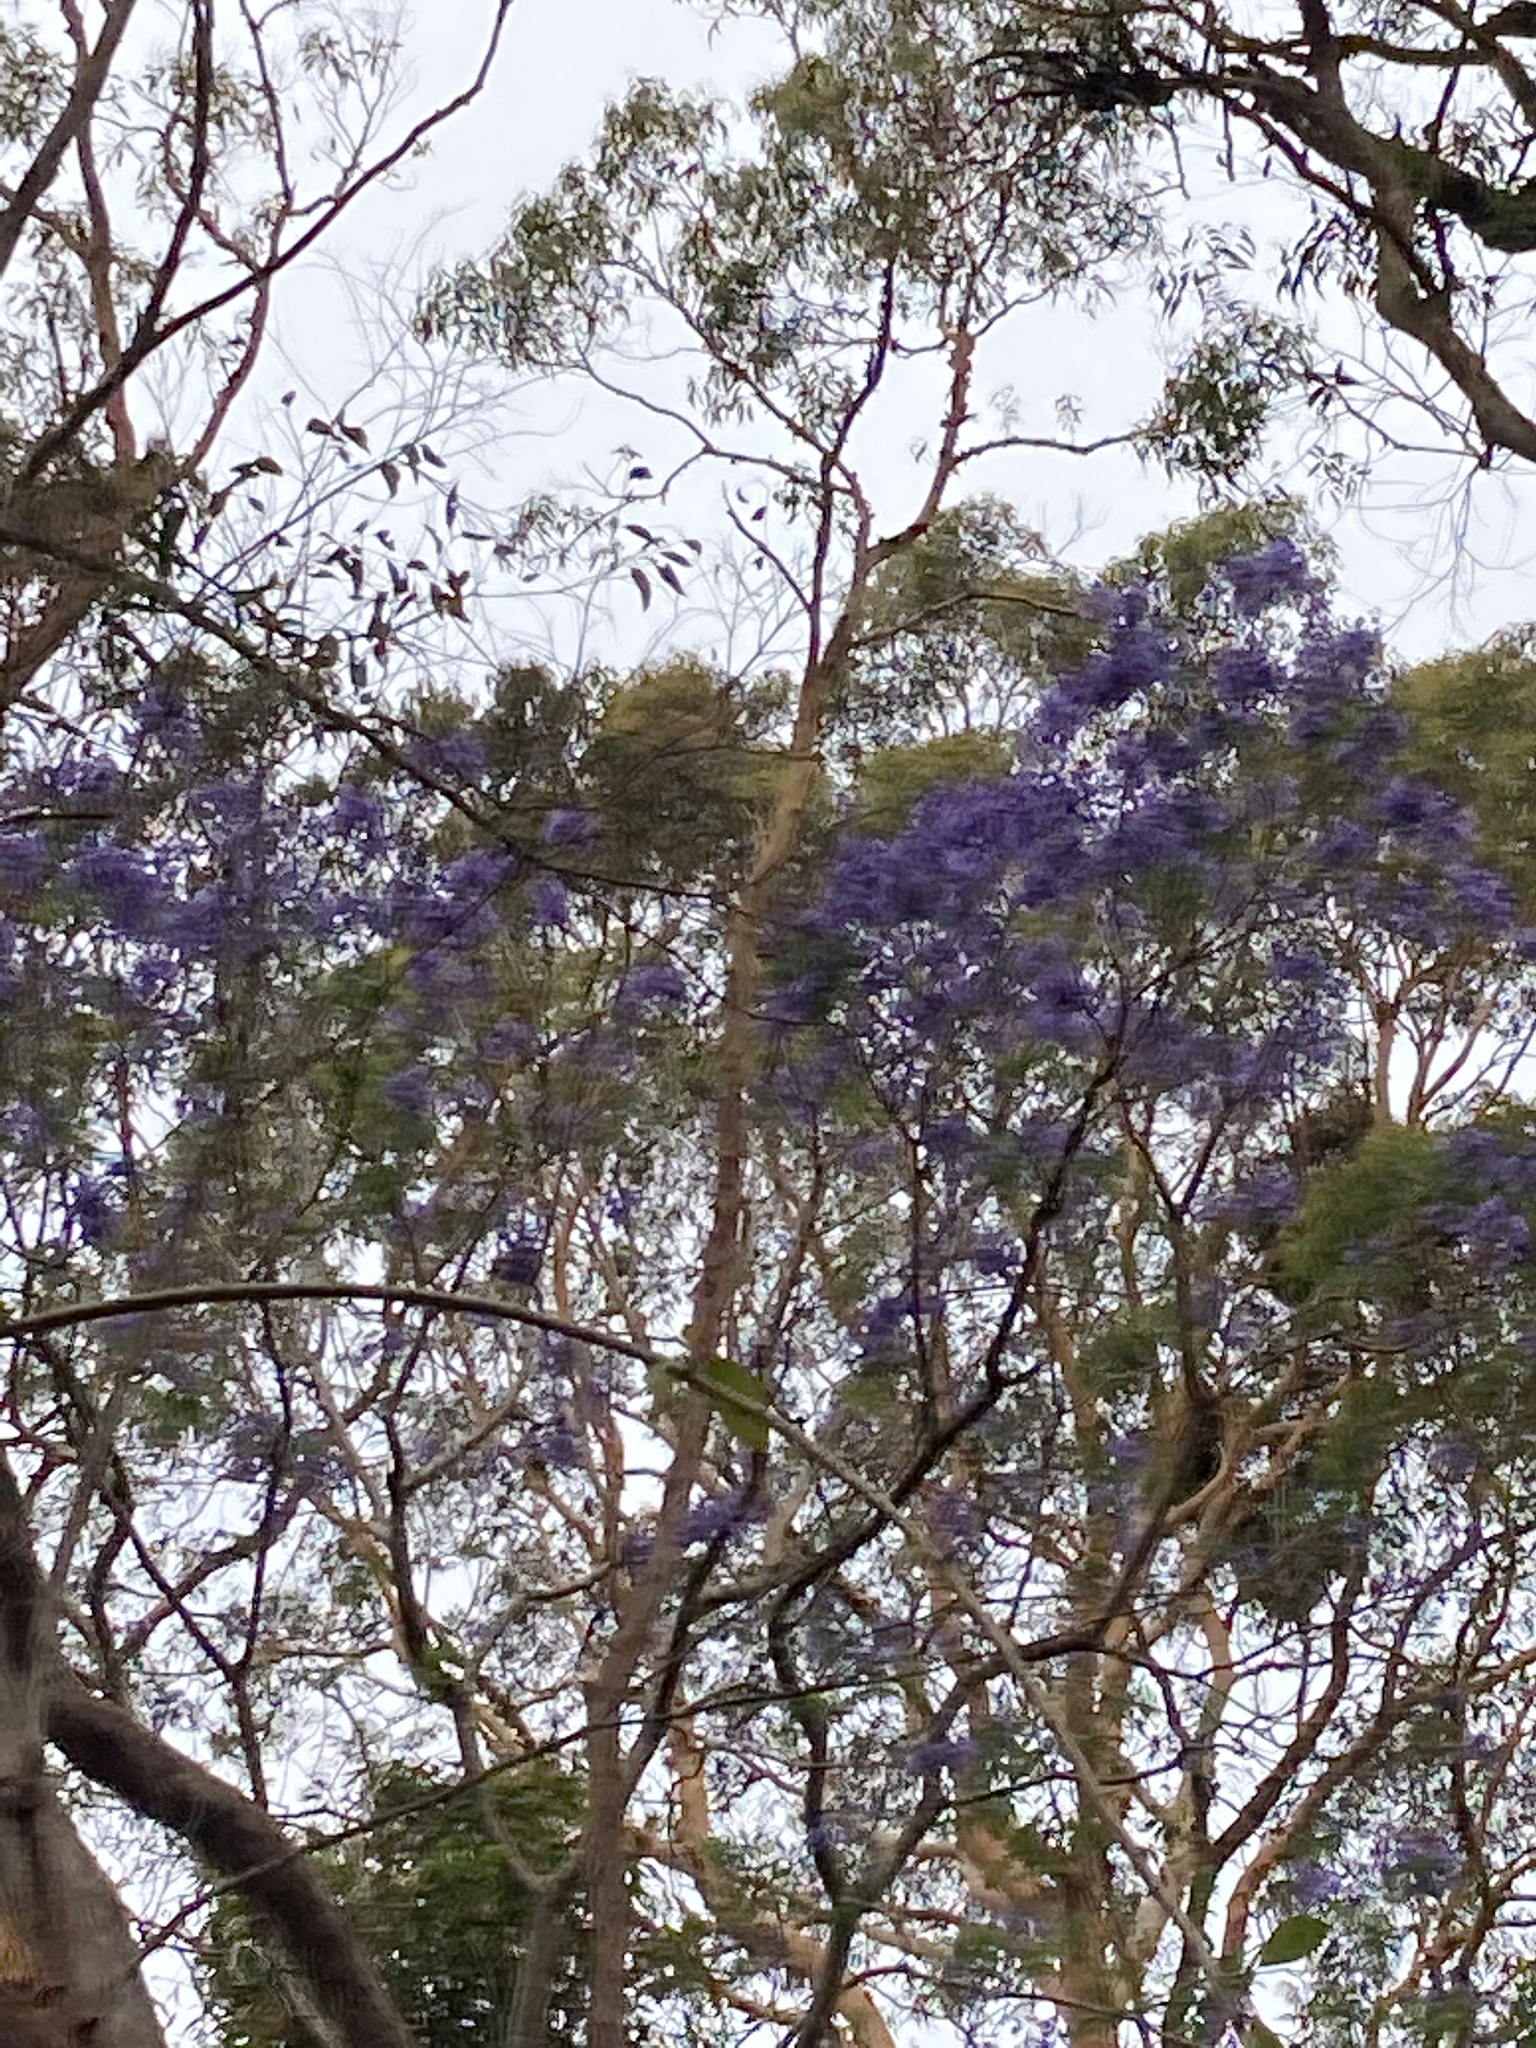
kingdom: Plantae
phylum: Tracheophyta
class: Magnoliopsida
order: Lamiales
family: Bignoniaceae
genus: Jacaranda
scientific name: Jacaranda mimosifolia
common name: Black poui
